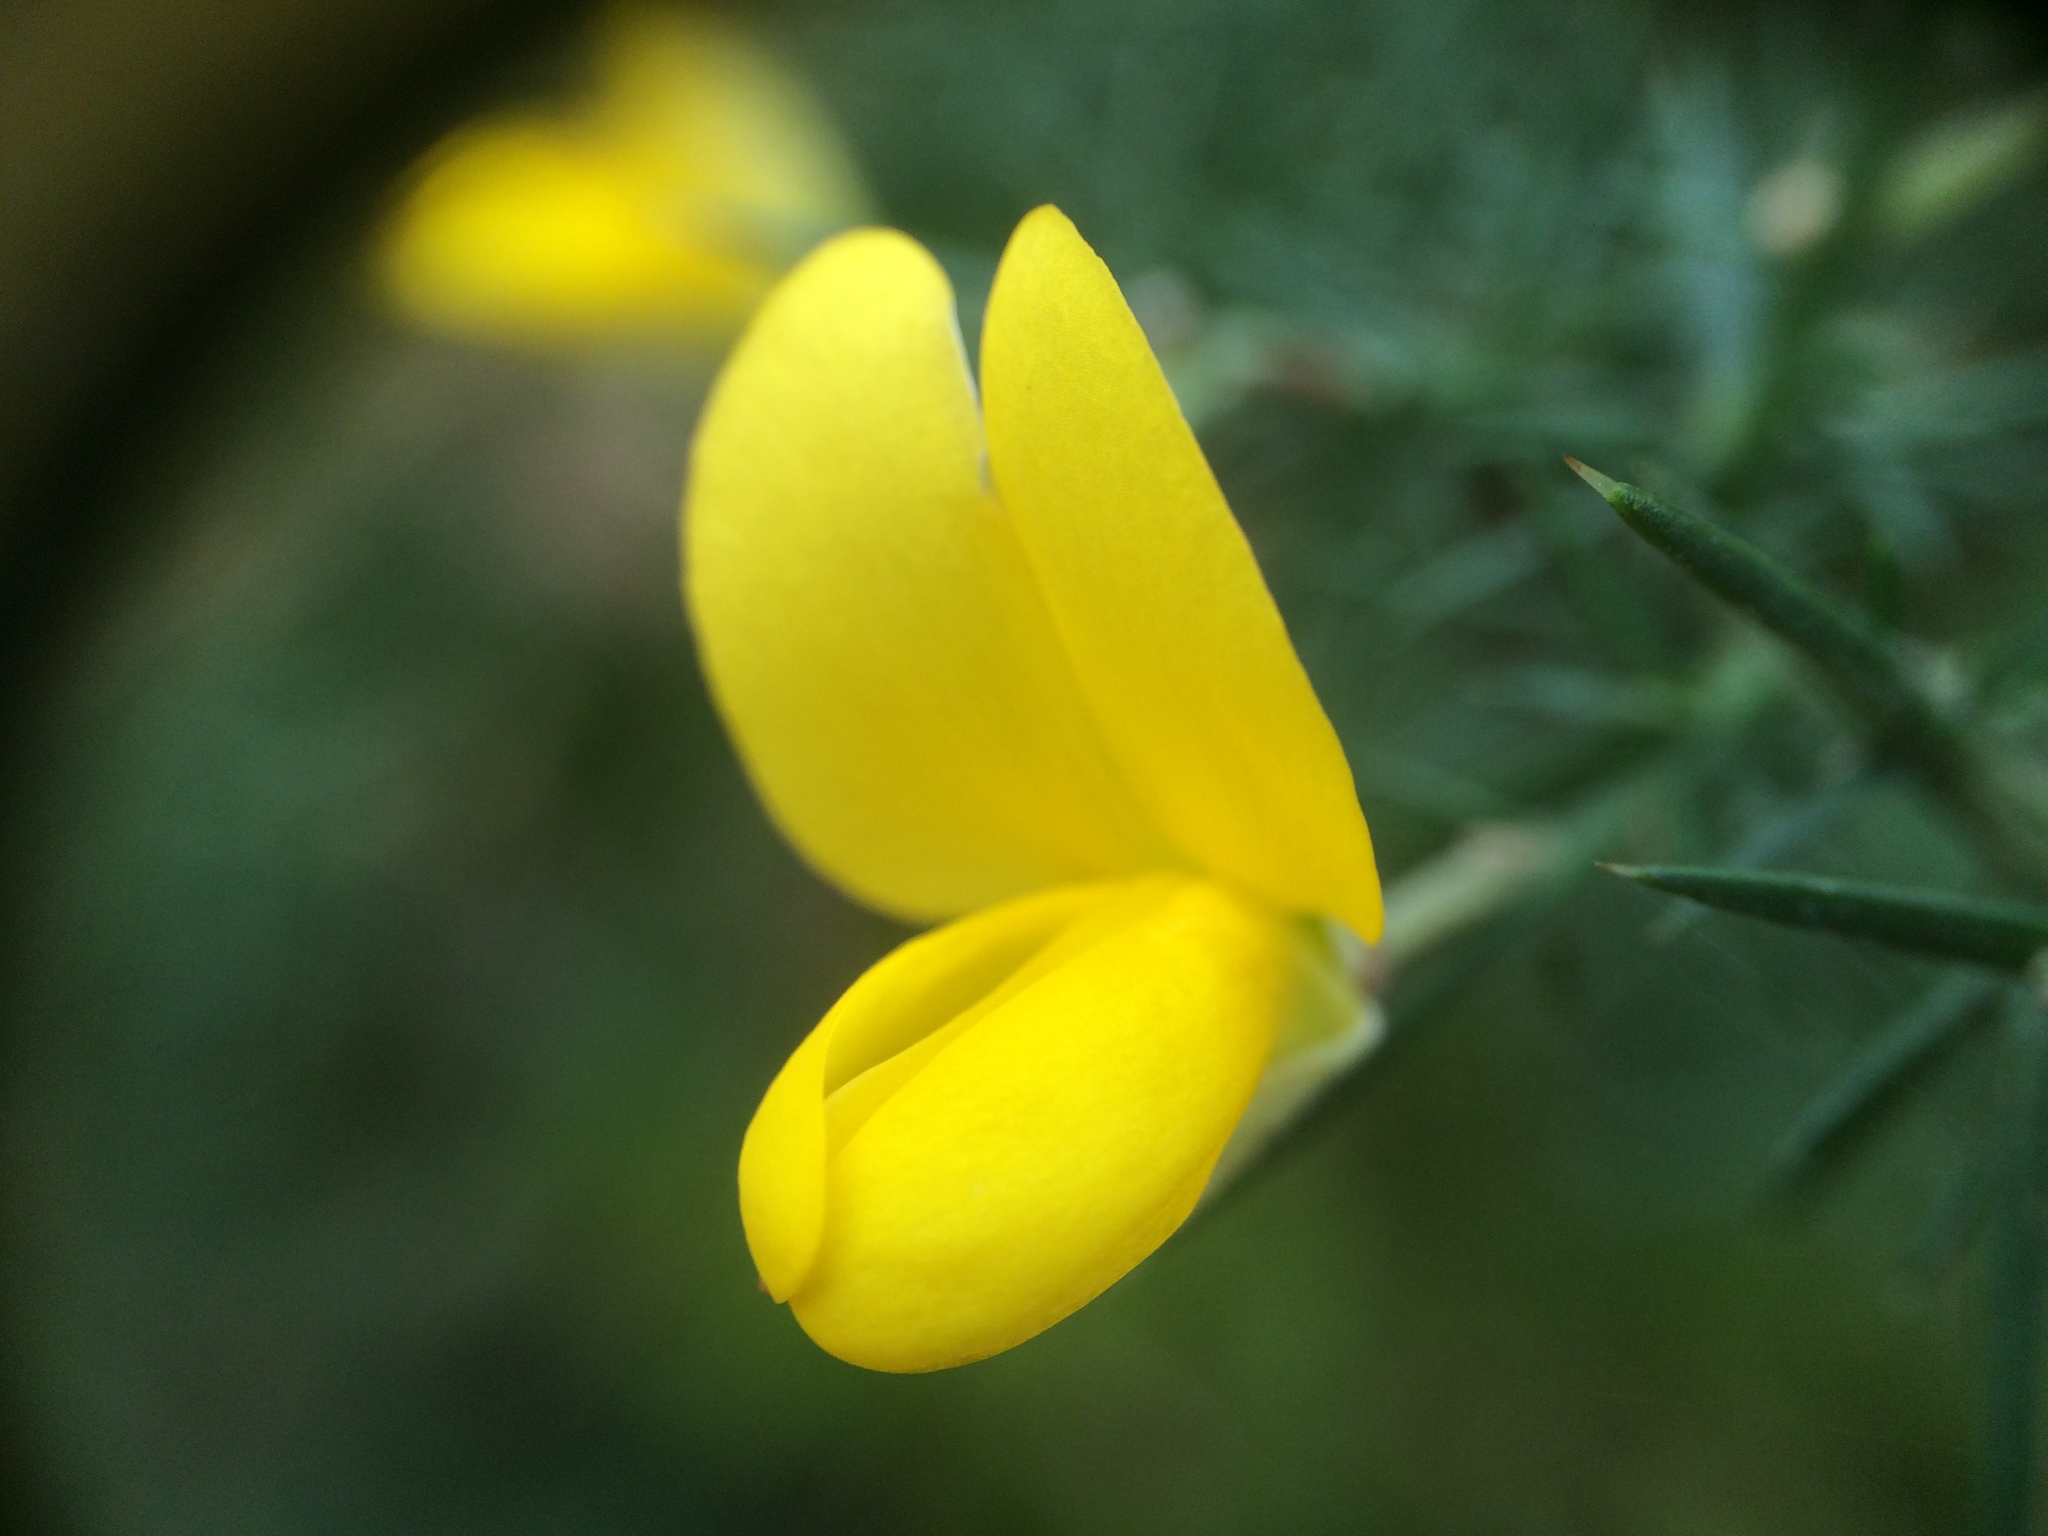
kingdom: Plantae
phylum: Tracheophyta
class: Magnoliopsida
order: Fabales
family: Fabaceae
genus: Ulex
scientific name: Ulex europaeus
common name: Common gorse
